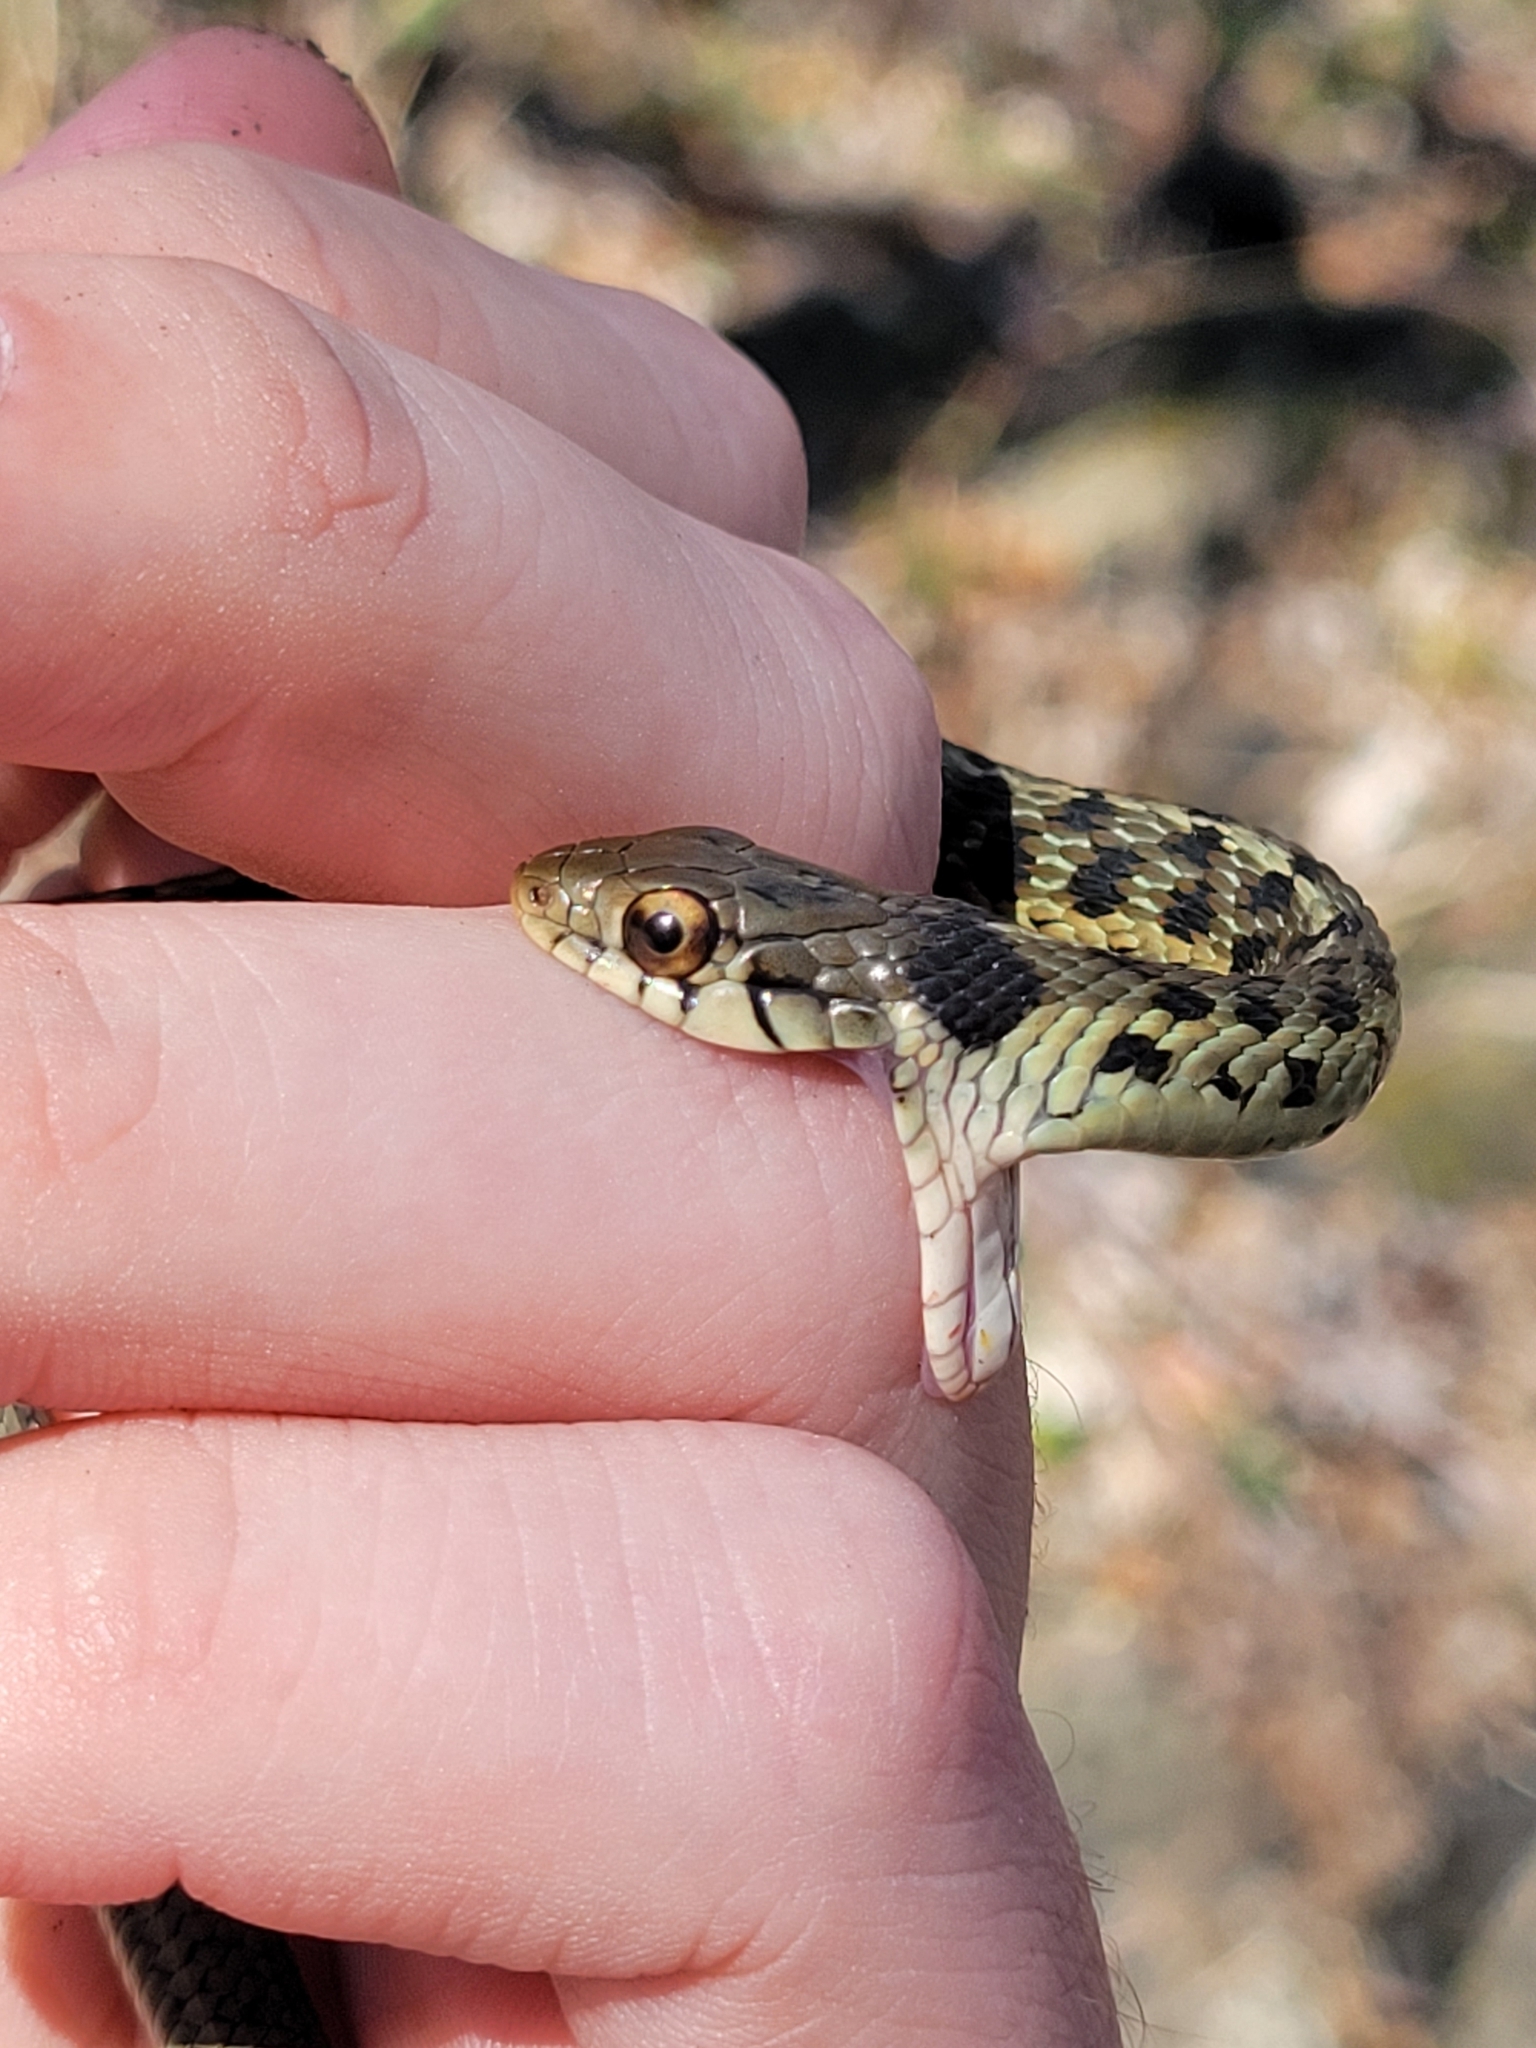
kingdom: Animalia
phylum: Chordata
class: Squamata
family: Colubridae
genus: Thamnophis
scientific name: Thamnophis sirtalis
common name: Common garter snake
